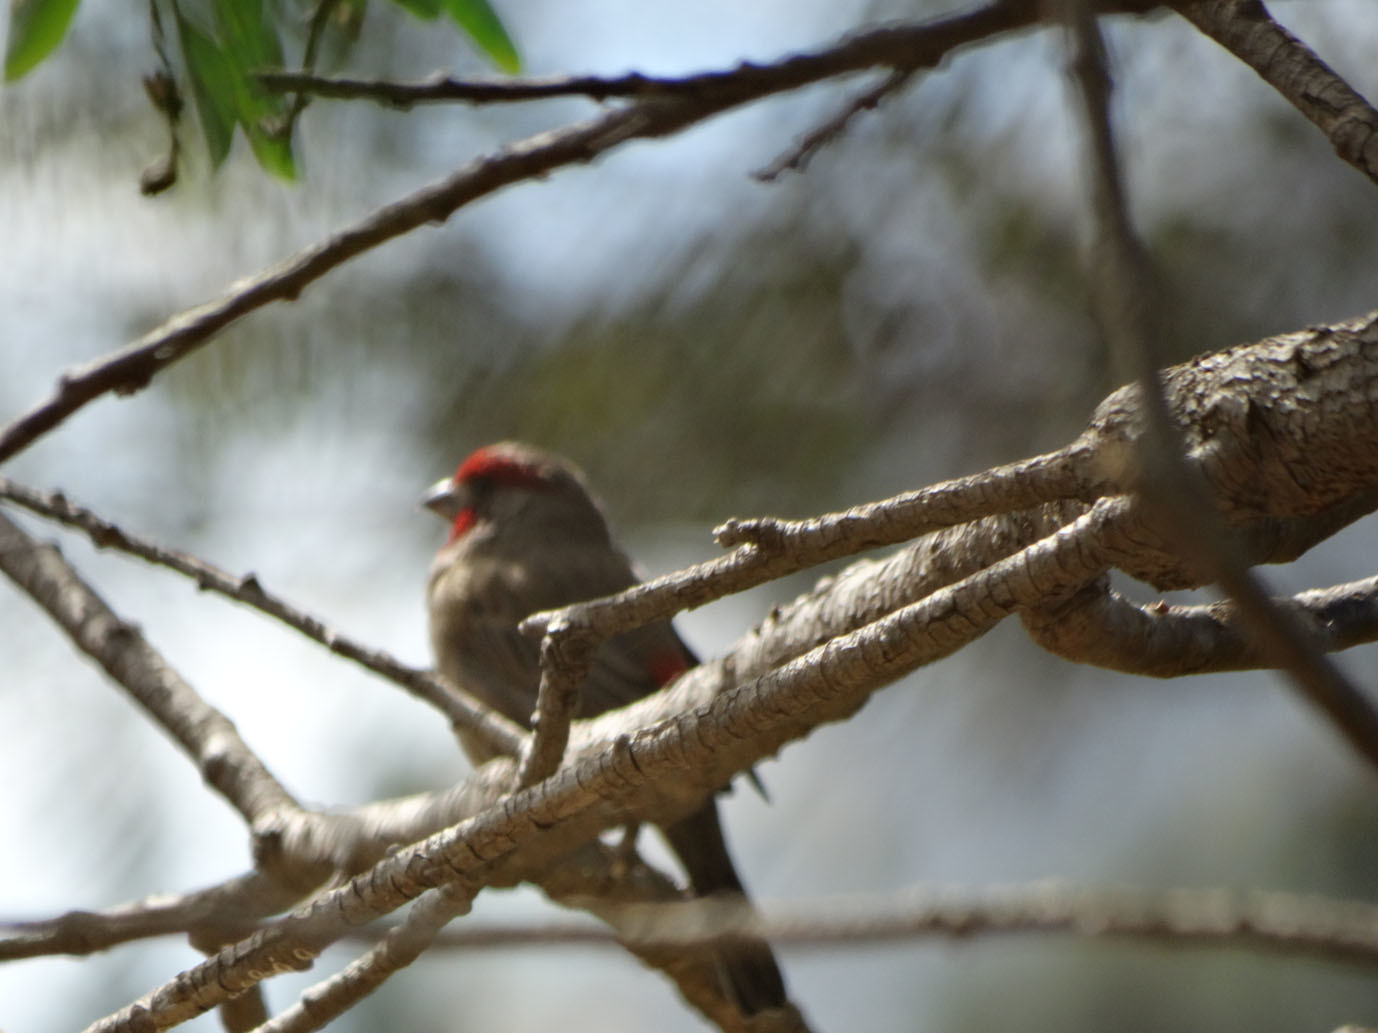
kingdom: Animalia
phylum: Chordata
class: Aves
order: Passeriformes
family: Fringillidae
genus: Haemorhous
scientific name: Haemorhous mexicanus
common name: House finch
